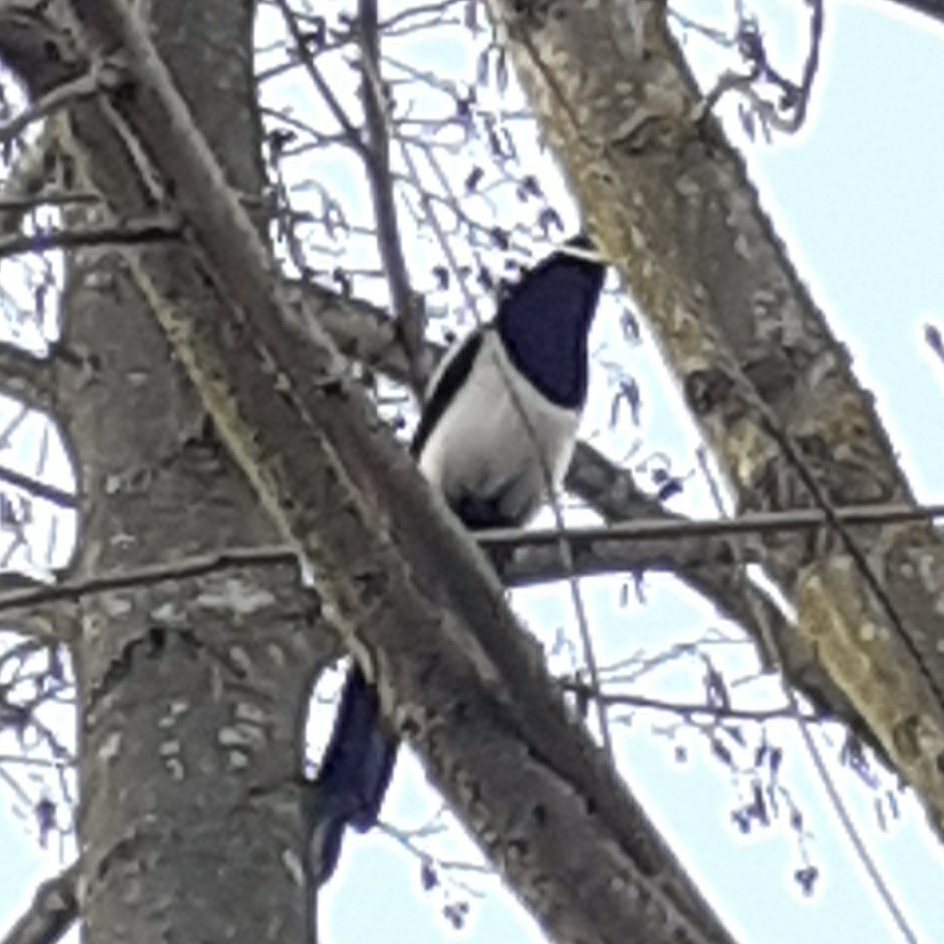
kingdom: Animalia
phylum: Chordata
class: Aves
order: Passeriformes
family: Corvidae
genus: Pica
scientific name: Pica pica
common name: Eurasian magpie
